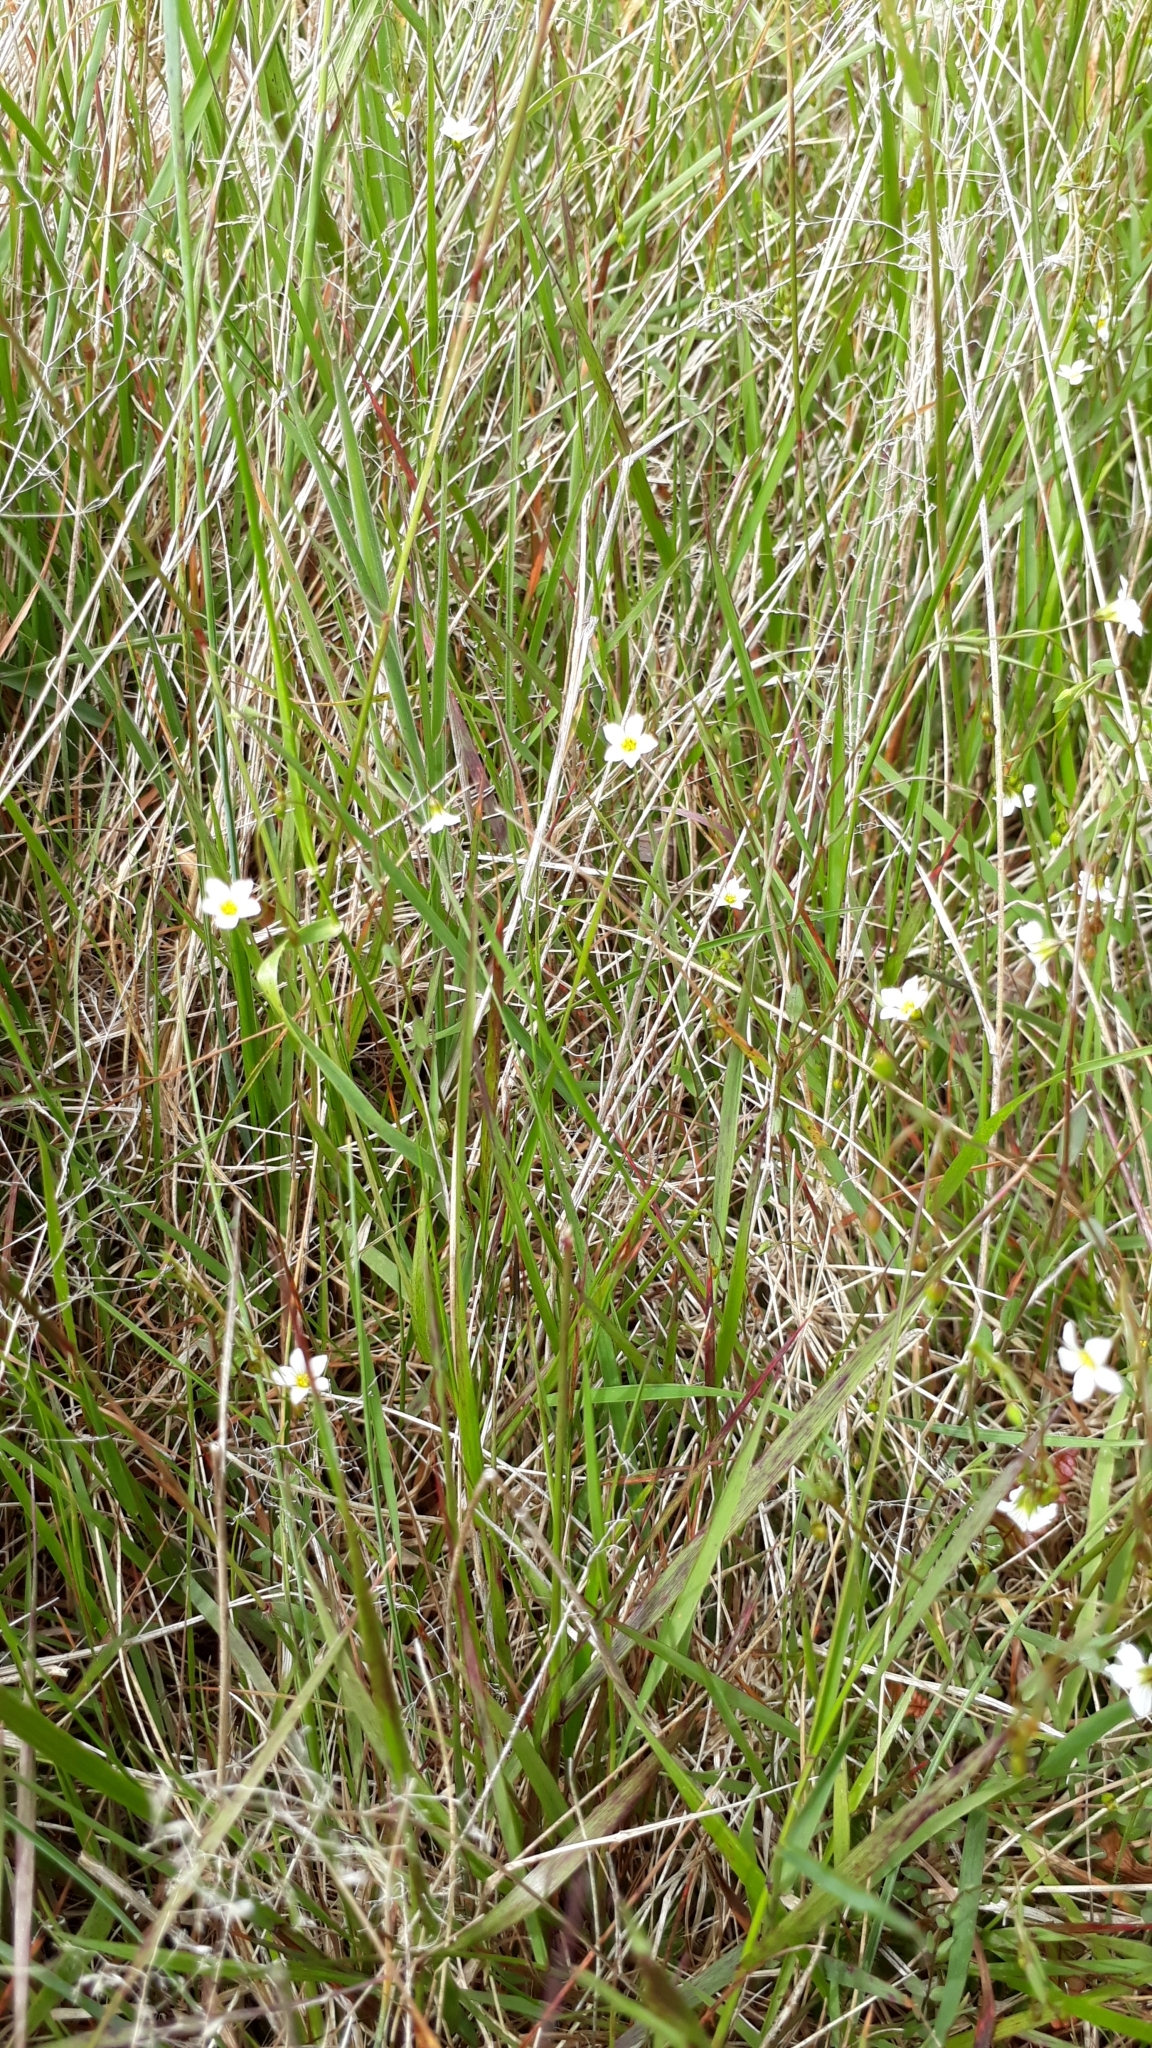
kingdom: Plantae
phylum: Tracheophyta
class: Magnoliopsida
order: Malpighiales
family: Linaceae
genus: Linum
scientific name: Linum catharticum
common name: Fairy flax
